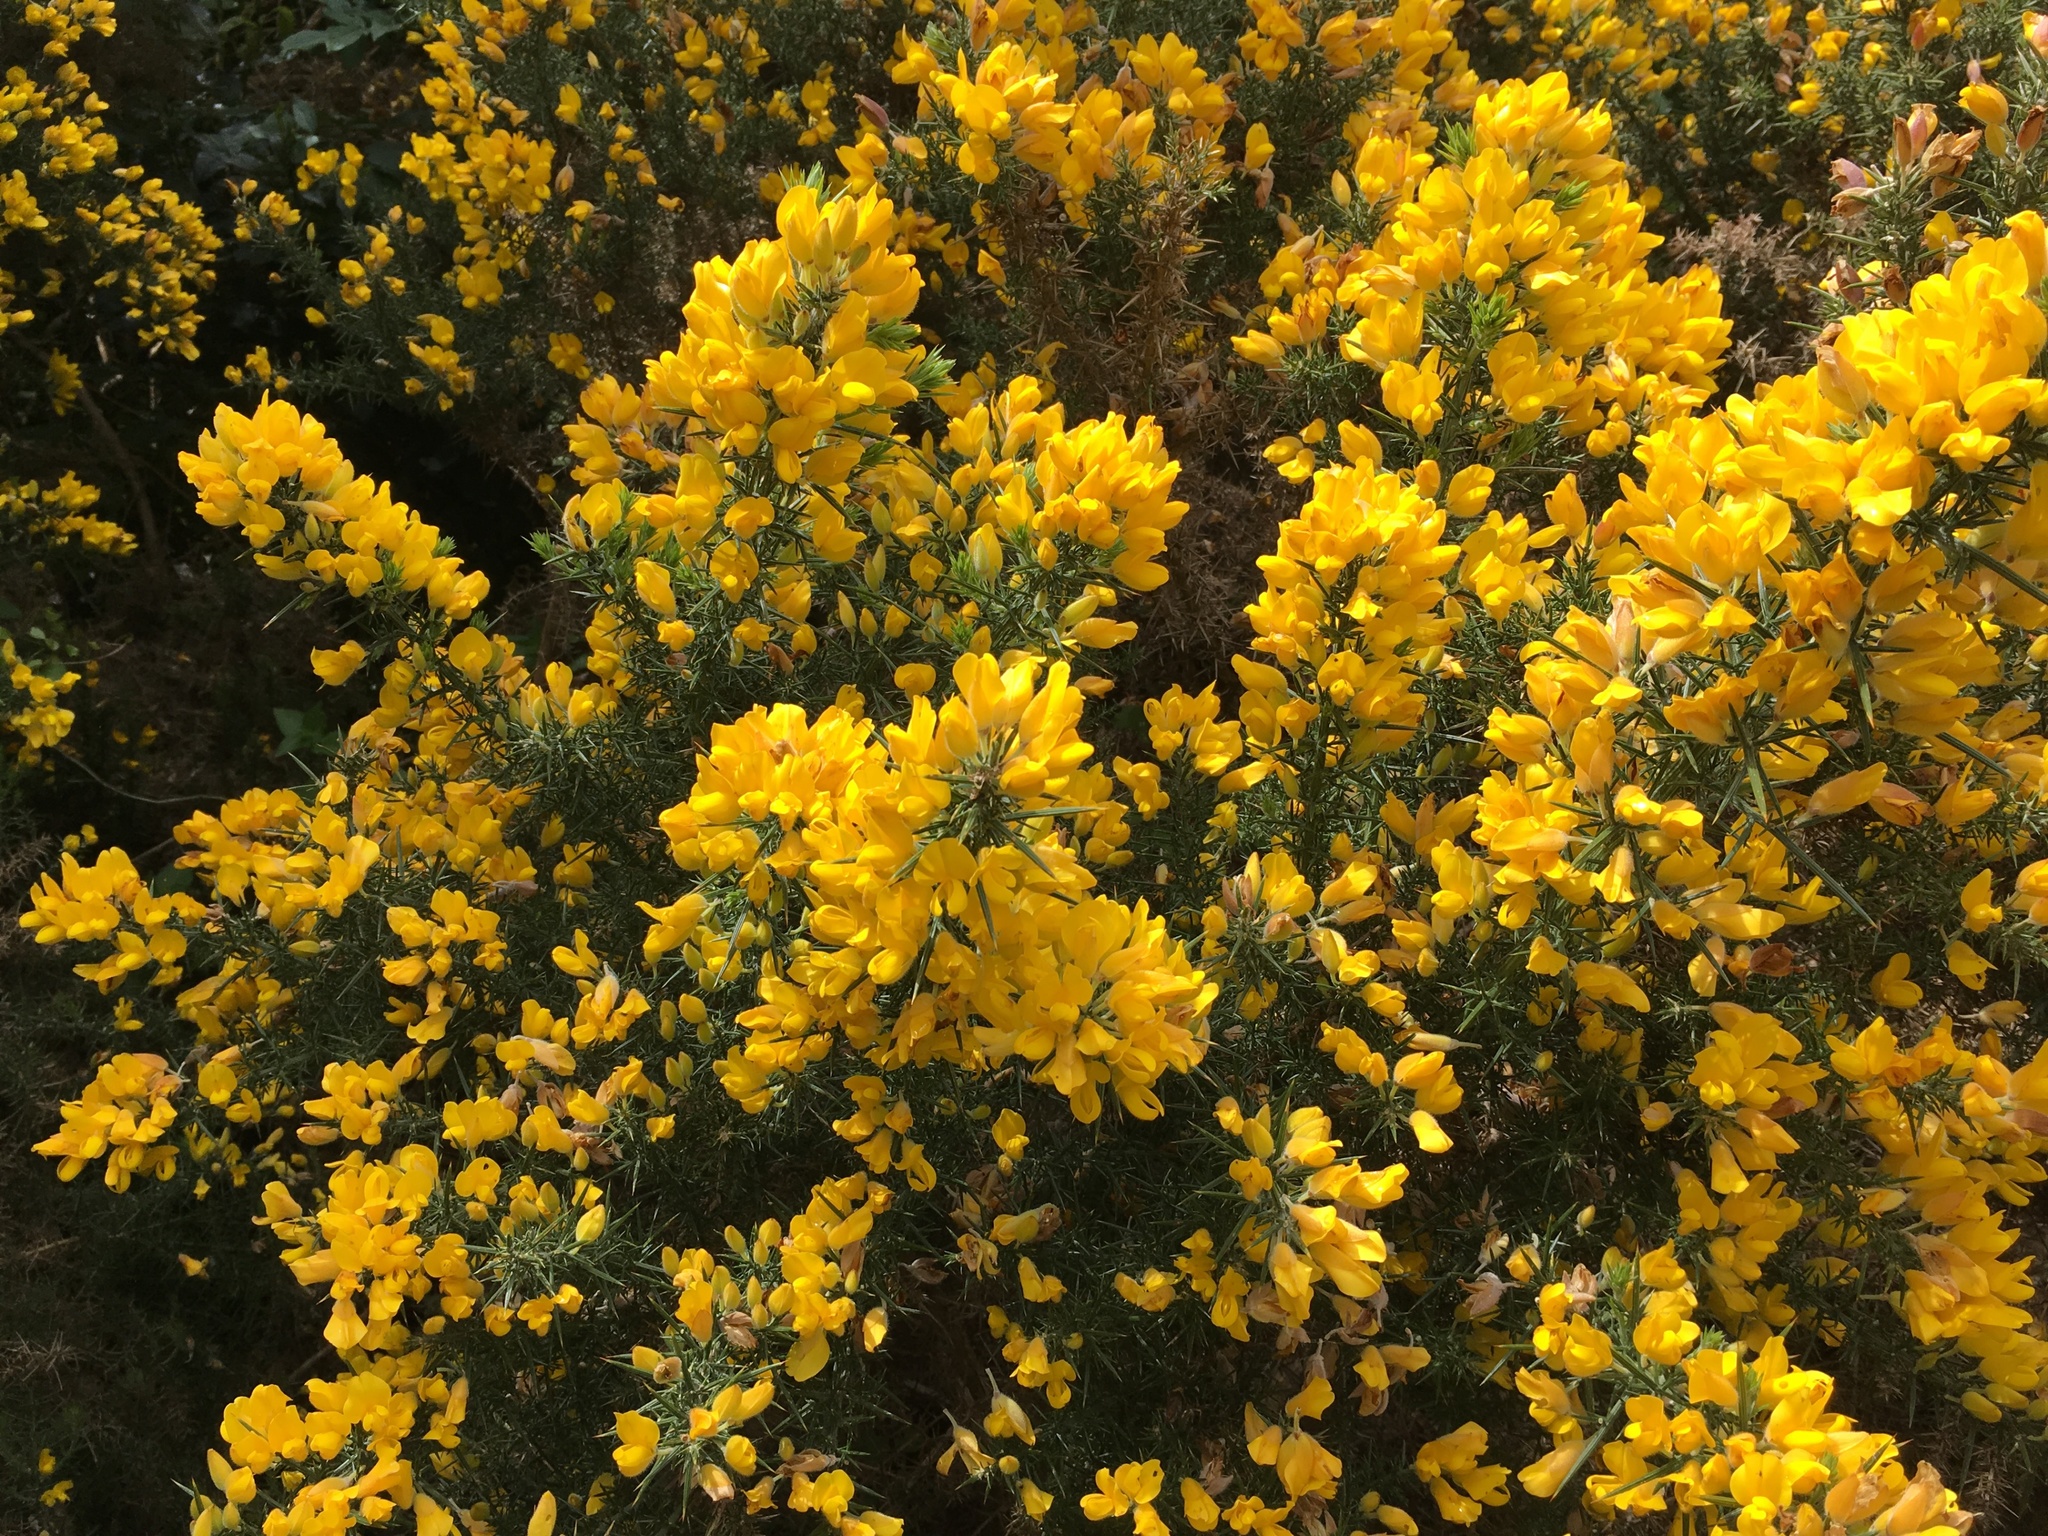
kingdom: Plantae
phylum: Tracheophyta
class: Magnoliopsida
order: Fabales
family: Fabaceae
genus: Ulex
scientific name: Ulex europaeus
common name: Common gorse
